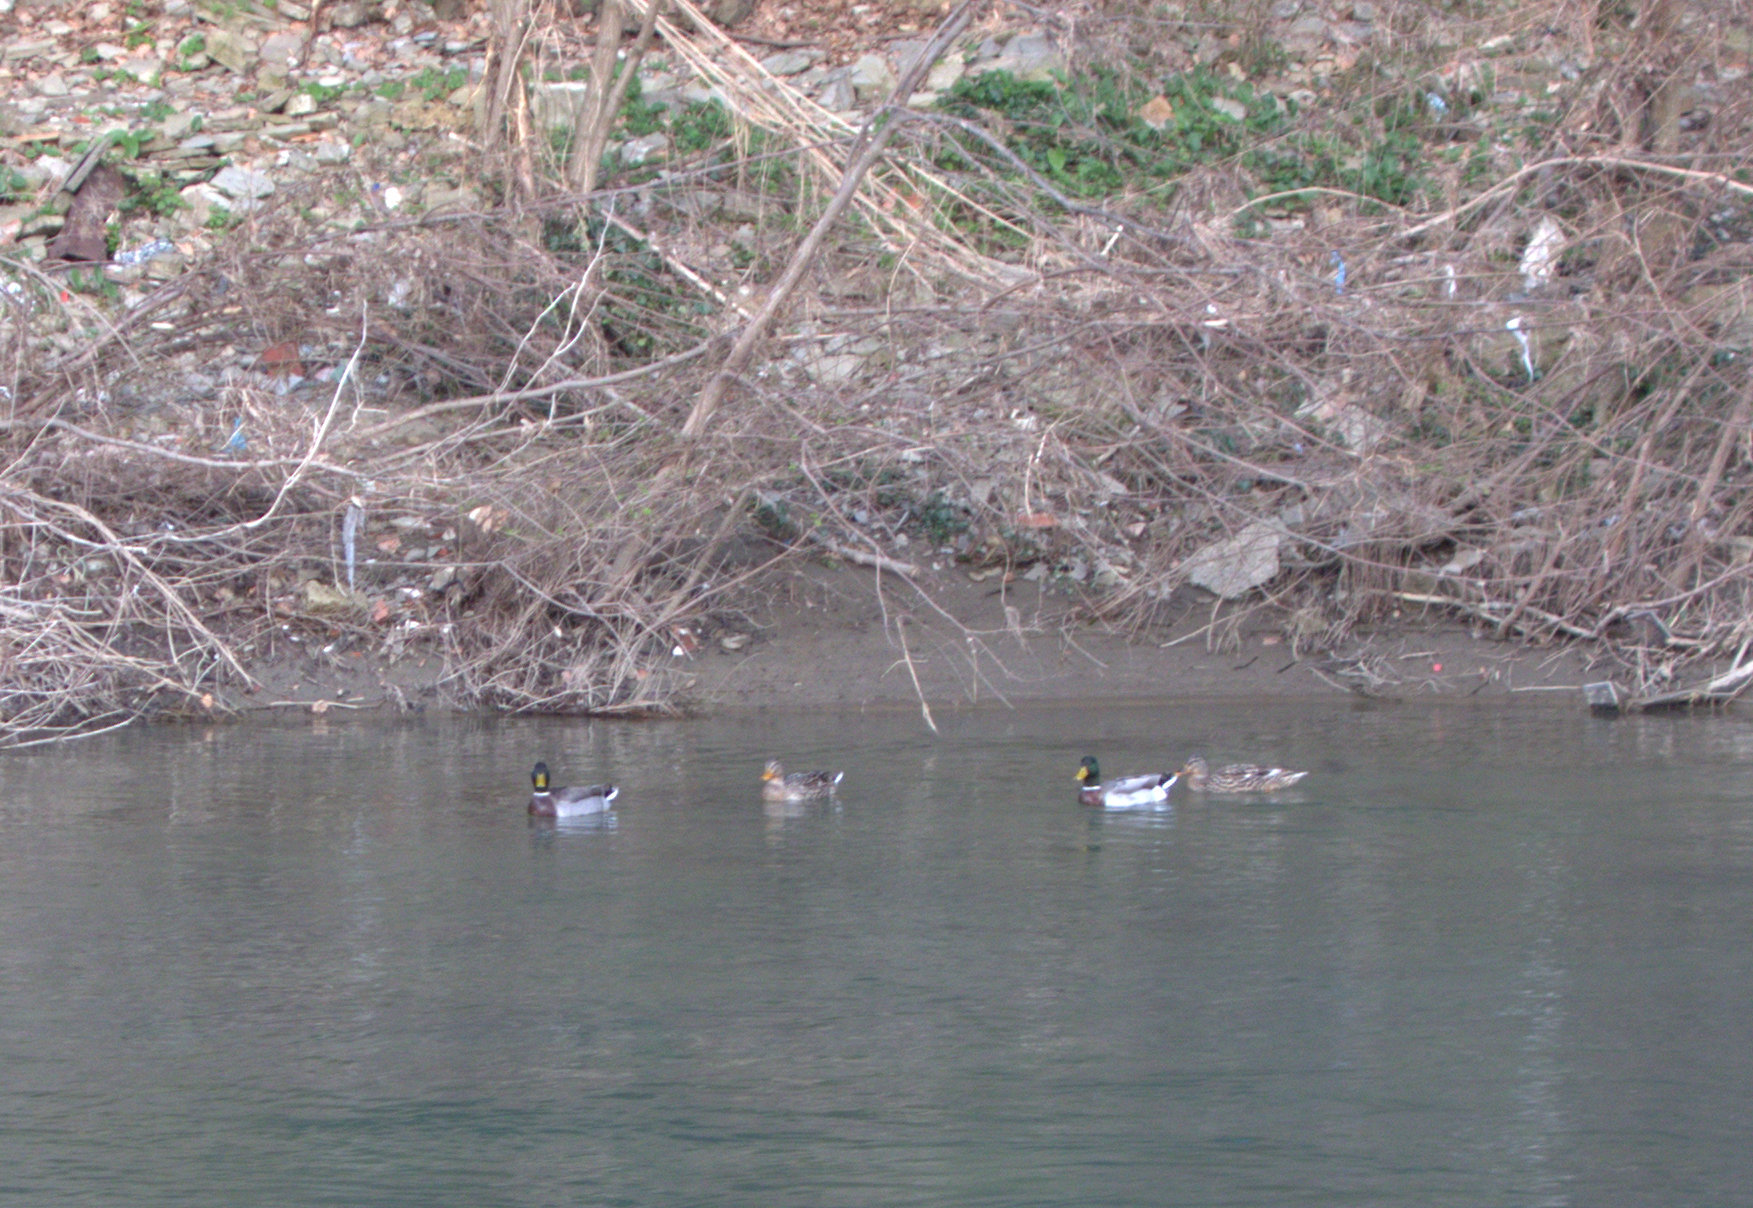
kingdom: Animalia
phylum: Chordata
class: Aves
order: Anseriformes
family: Anatidae
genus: Anas
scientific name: Anas platyrhynchos
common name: Mallard
